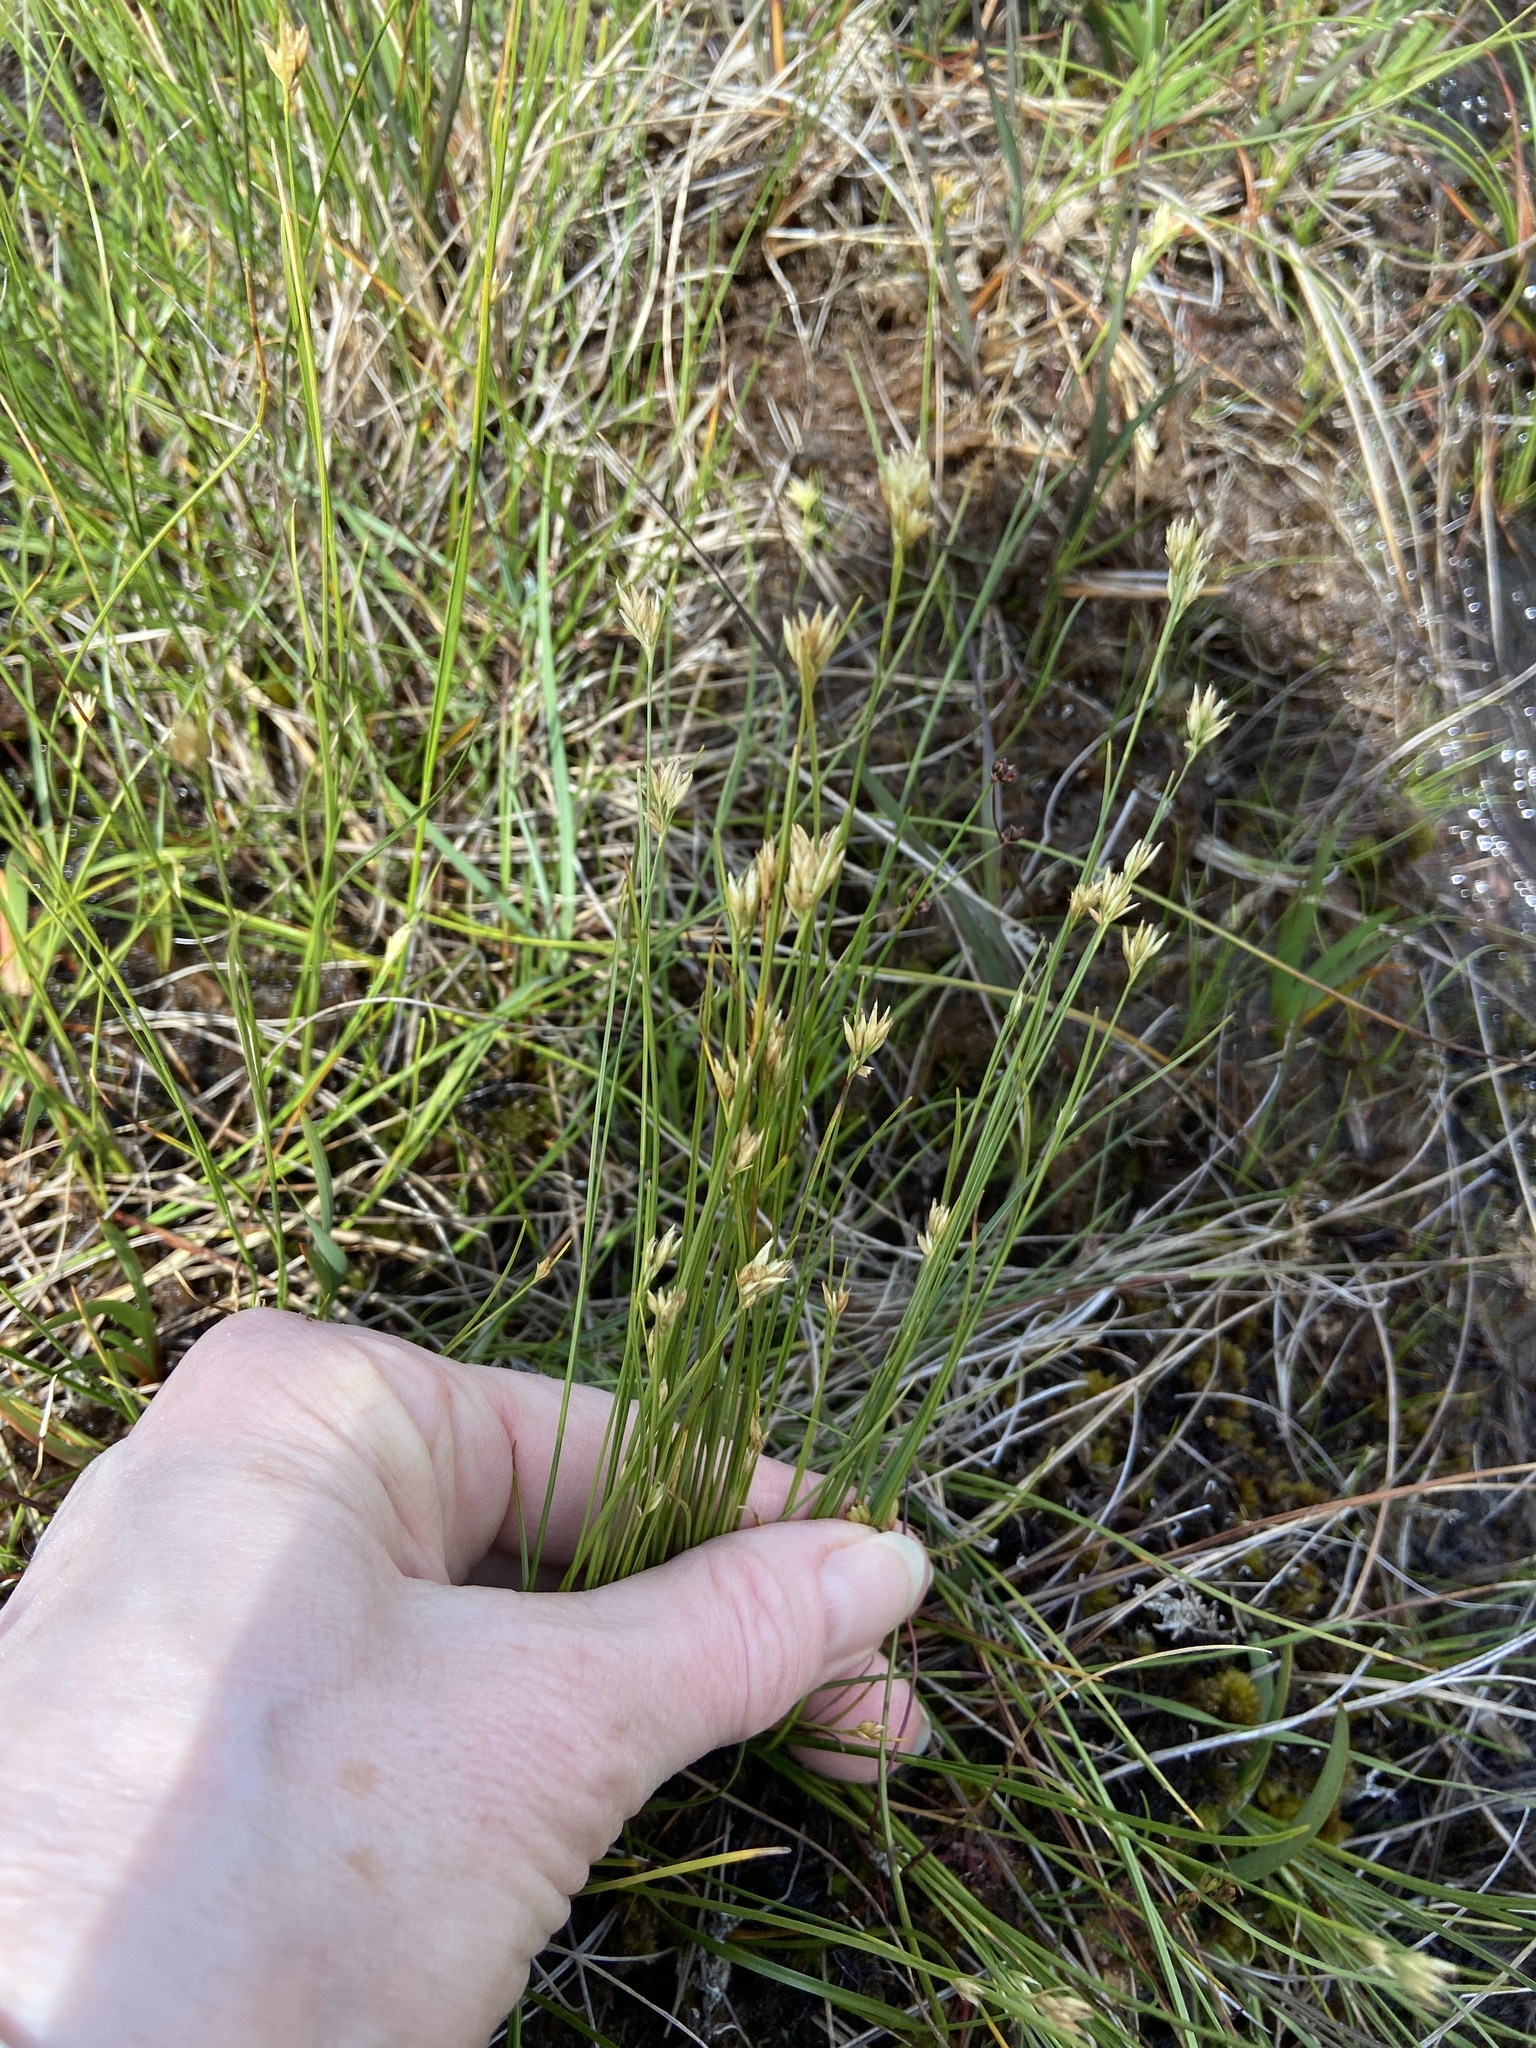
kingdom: Plantae
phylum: Tracheophyta
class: Liliopsida
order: Poales
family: Cyperaceae
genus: Rhynchospora
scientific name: Rhynchospora alba
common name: White beak-sedge
